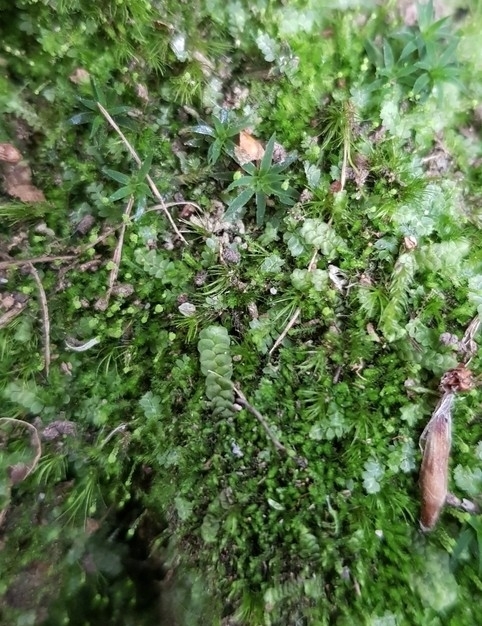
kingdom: Plantae
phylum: Marchantiophyta
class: Jungermanniopsida
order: Jungermanniales
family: Calypogeiaceae
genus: Asperifolia
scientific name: Asperifolia arguta
